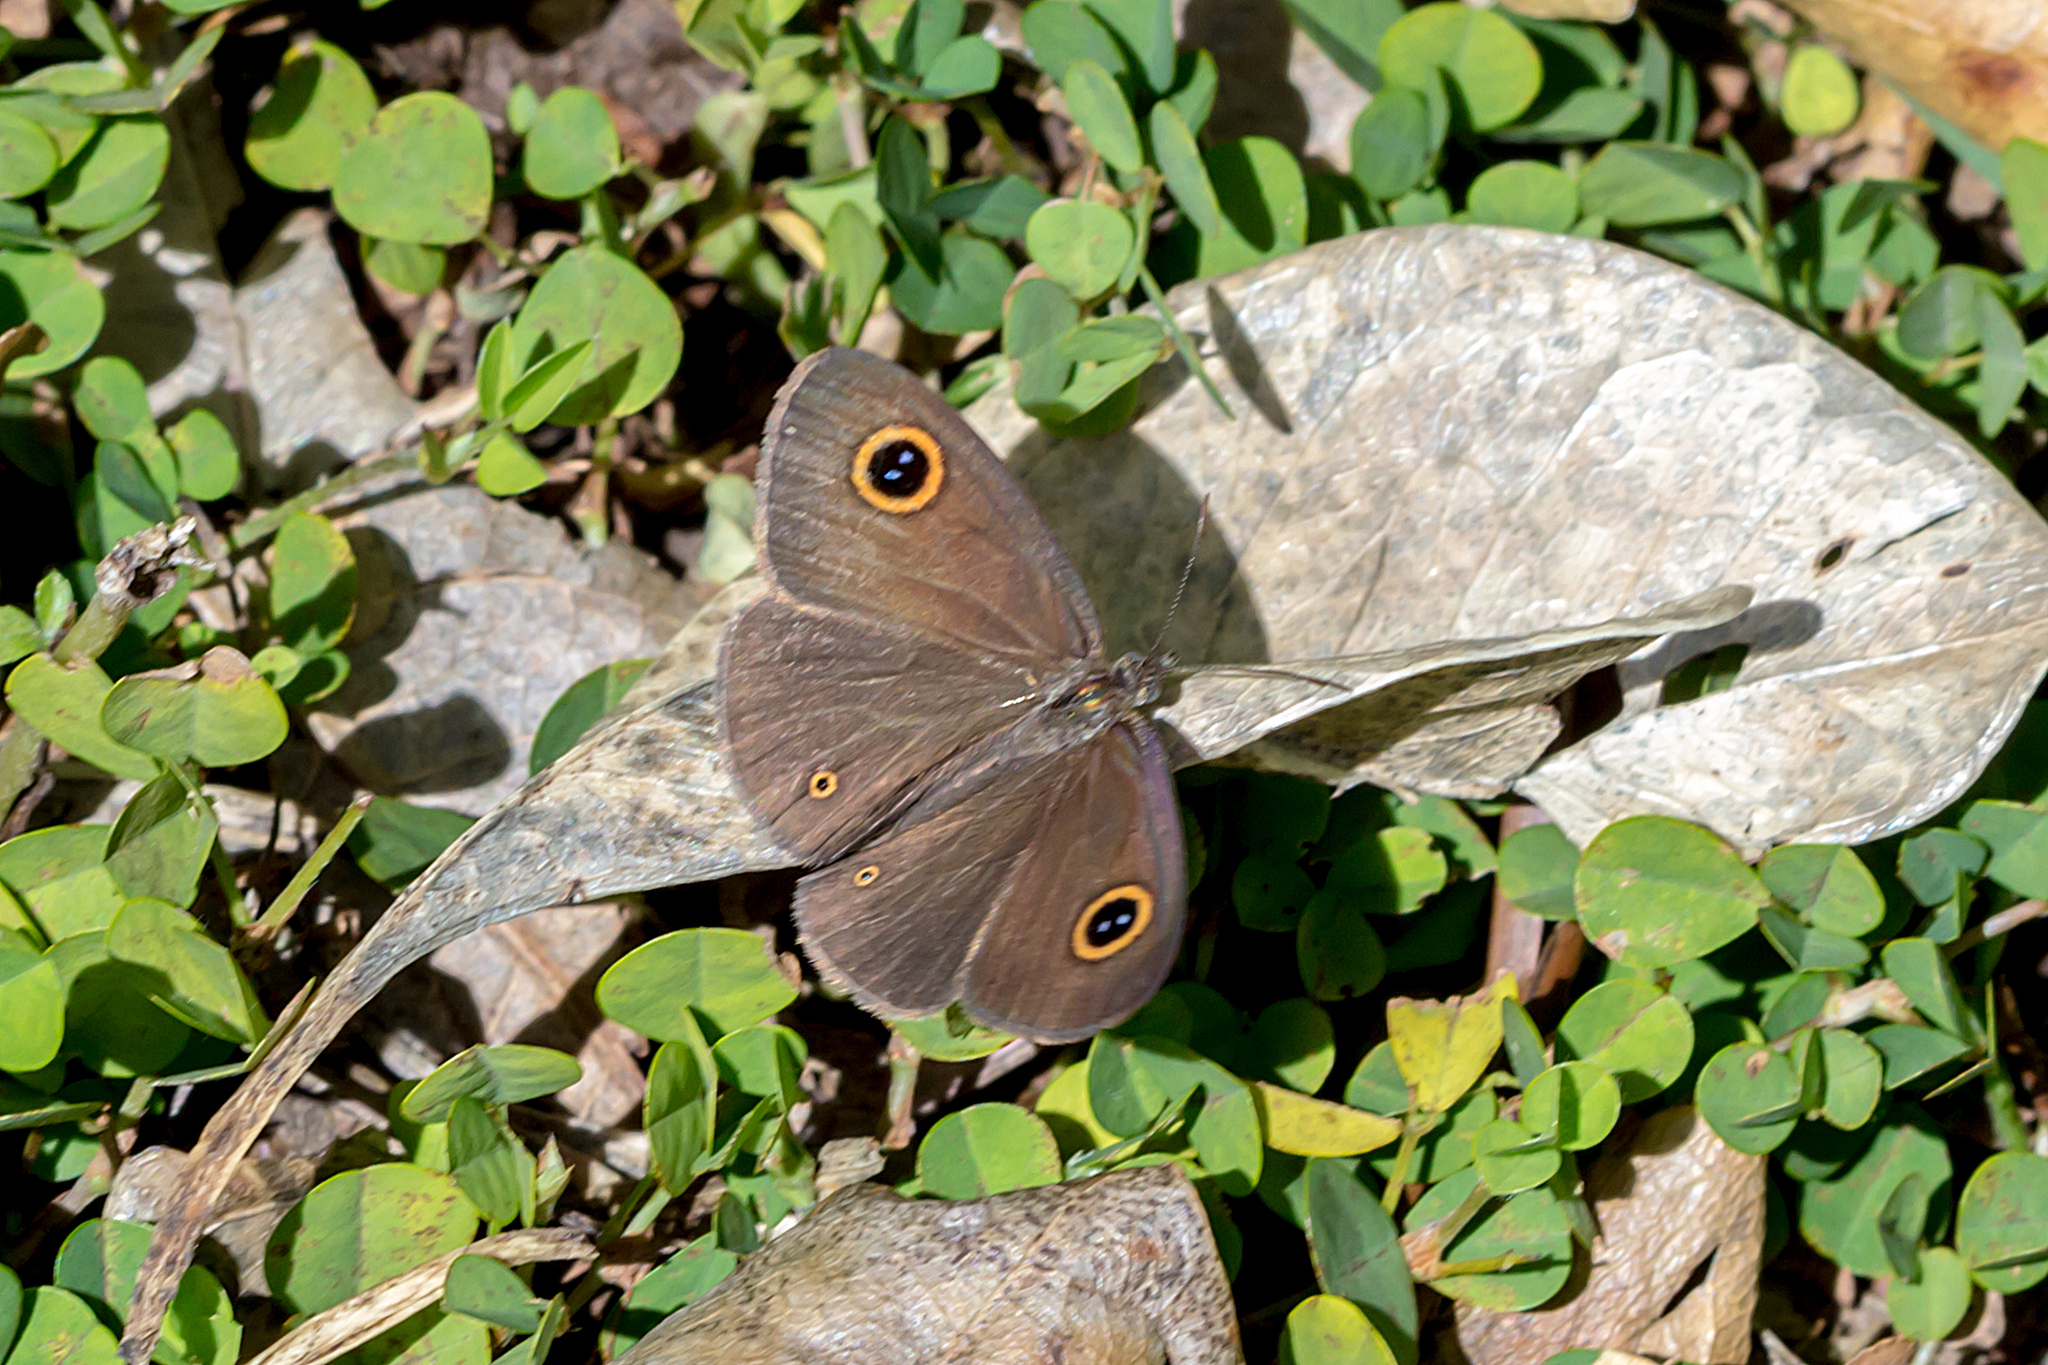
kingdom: Animalia
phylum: Arthropoda
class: Insecta
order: Lepidoptera
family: Nymphalidae
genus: Ypthima
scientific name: Ypthima arctous
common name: Dusky knight
